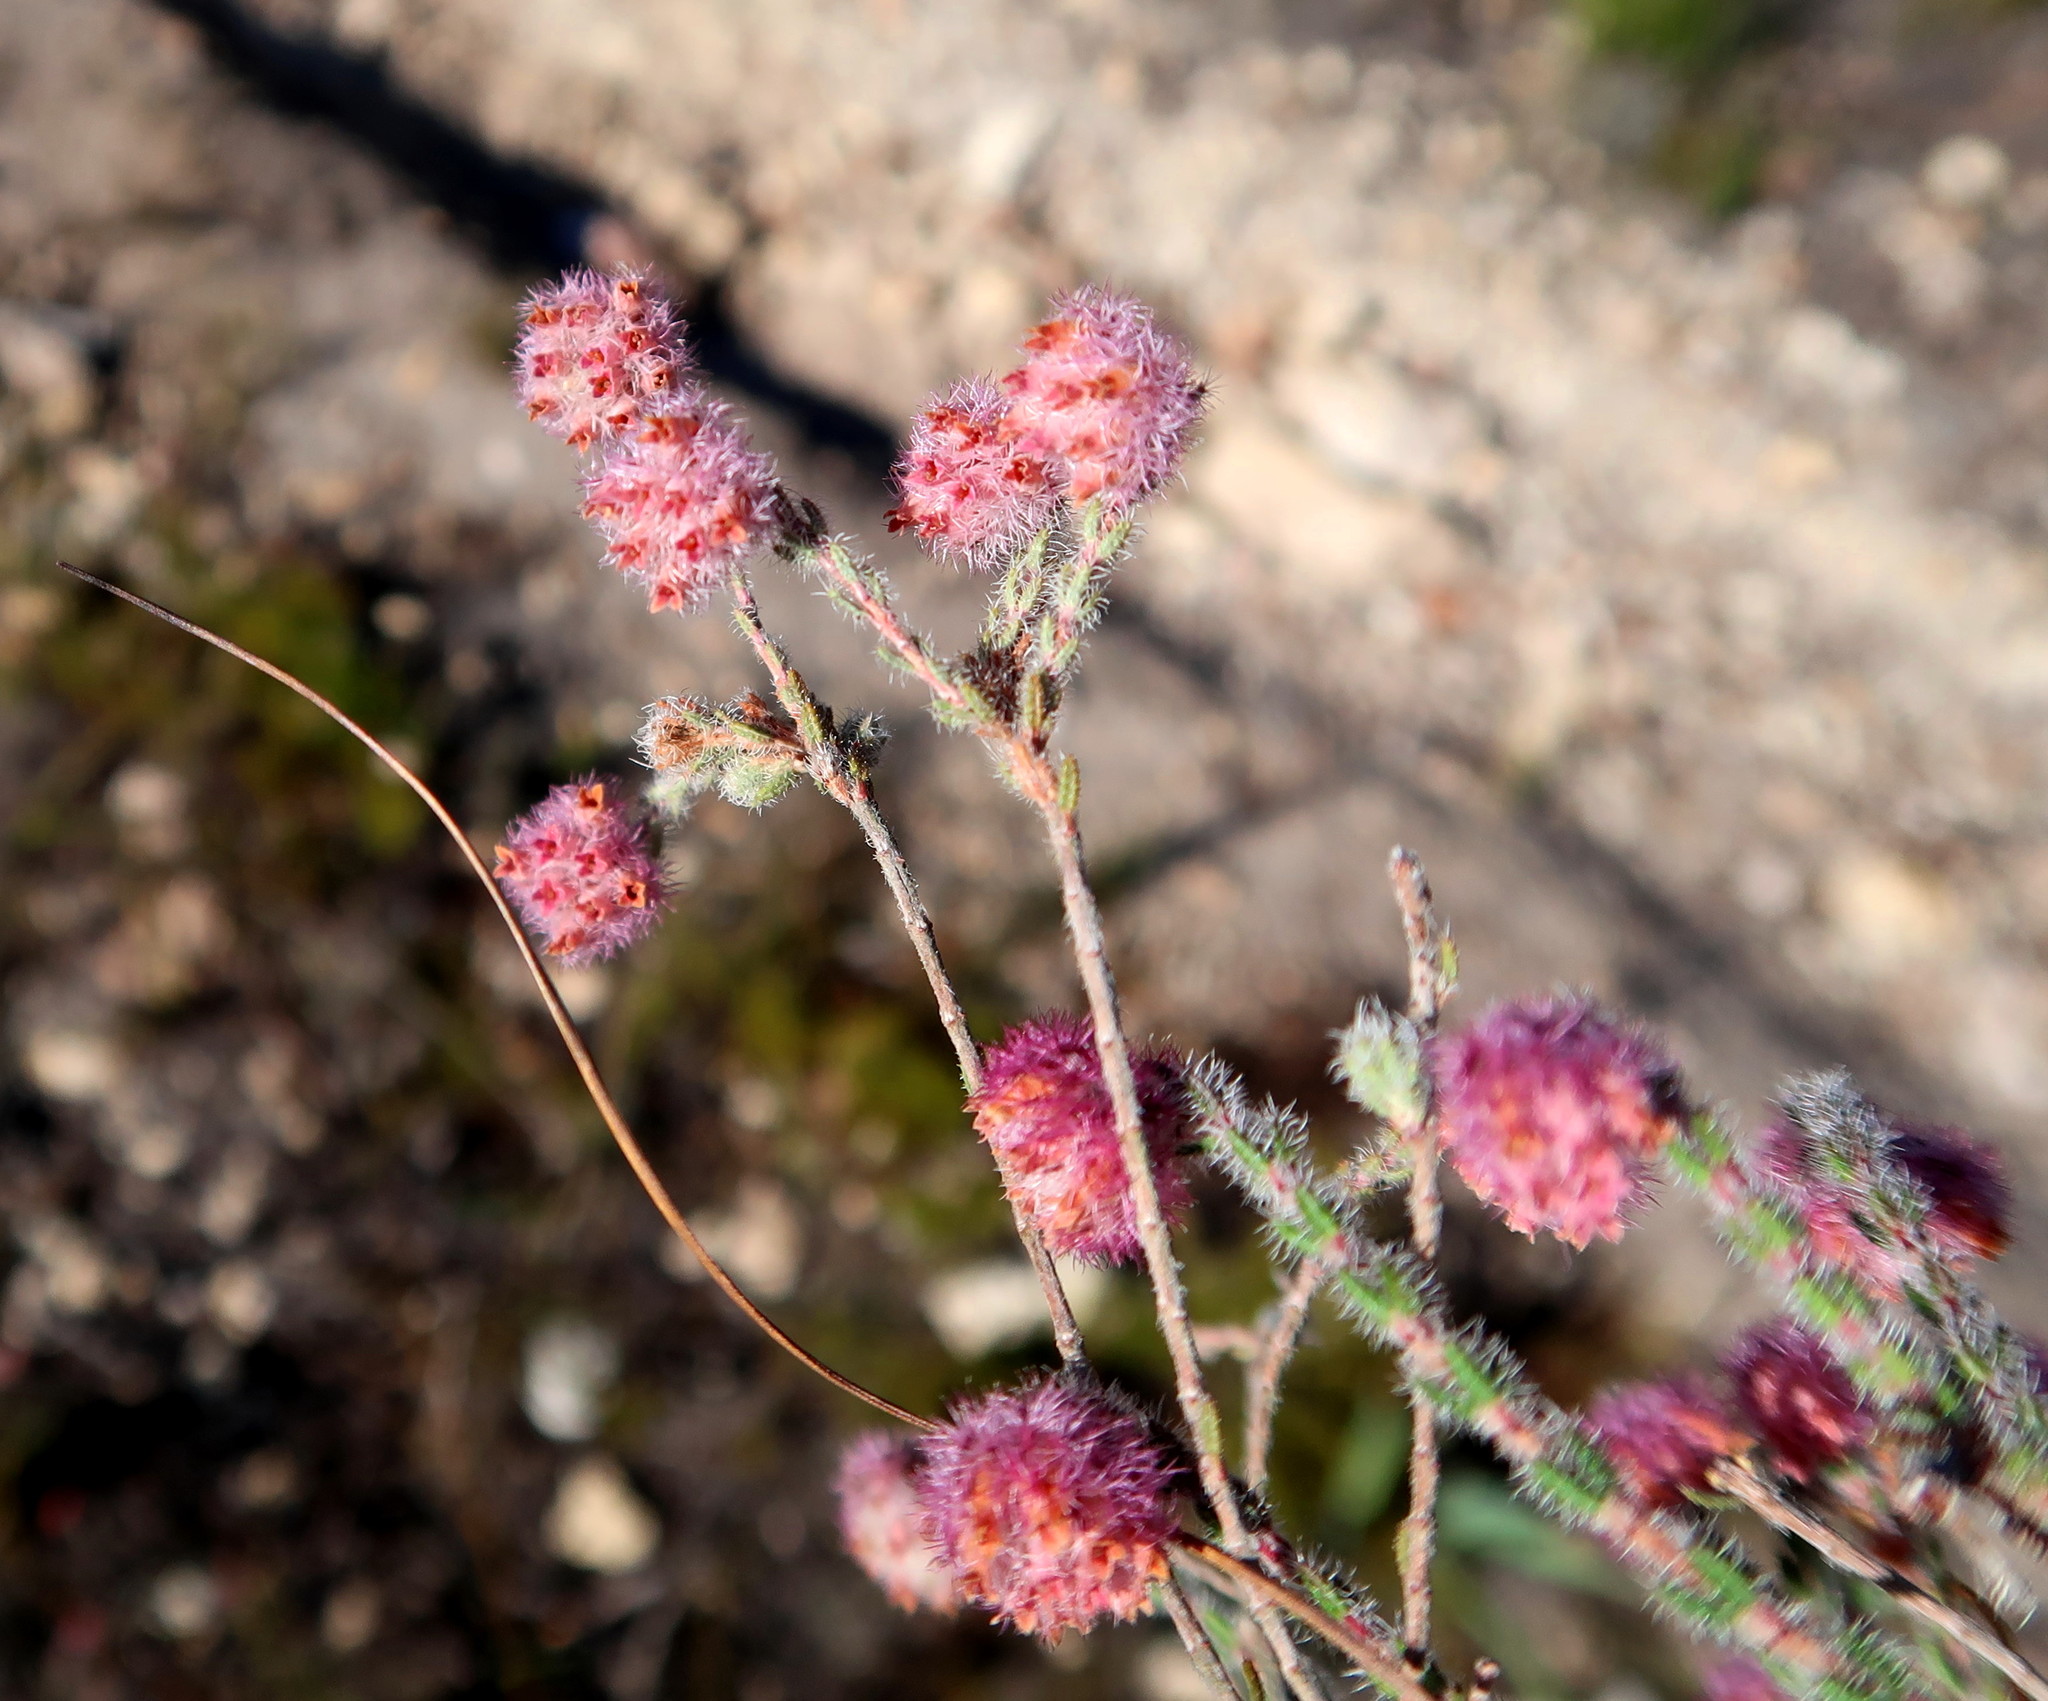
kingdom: Plantae
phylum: Tracheophyta
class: Magnoliopsida
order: Ericales
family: Ericaceae
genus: Erica
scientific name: Erica solandra
